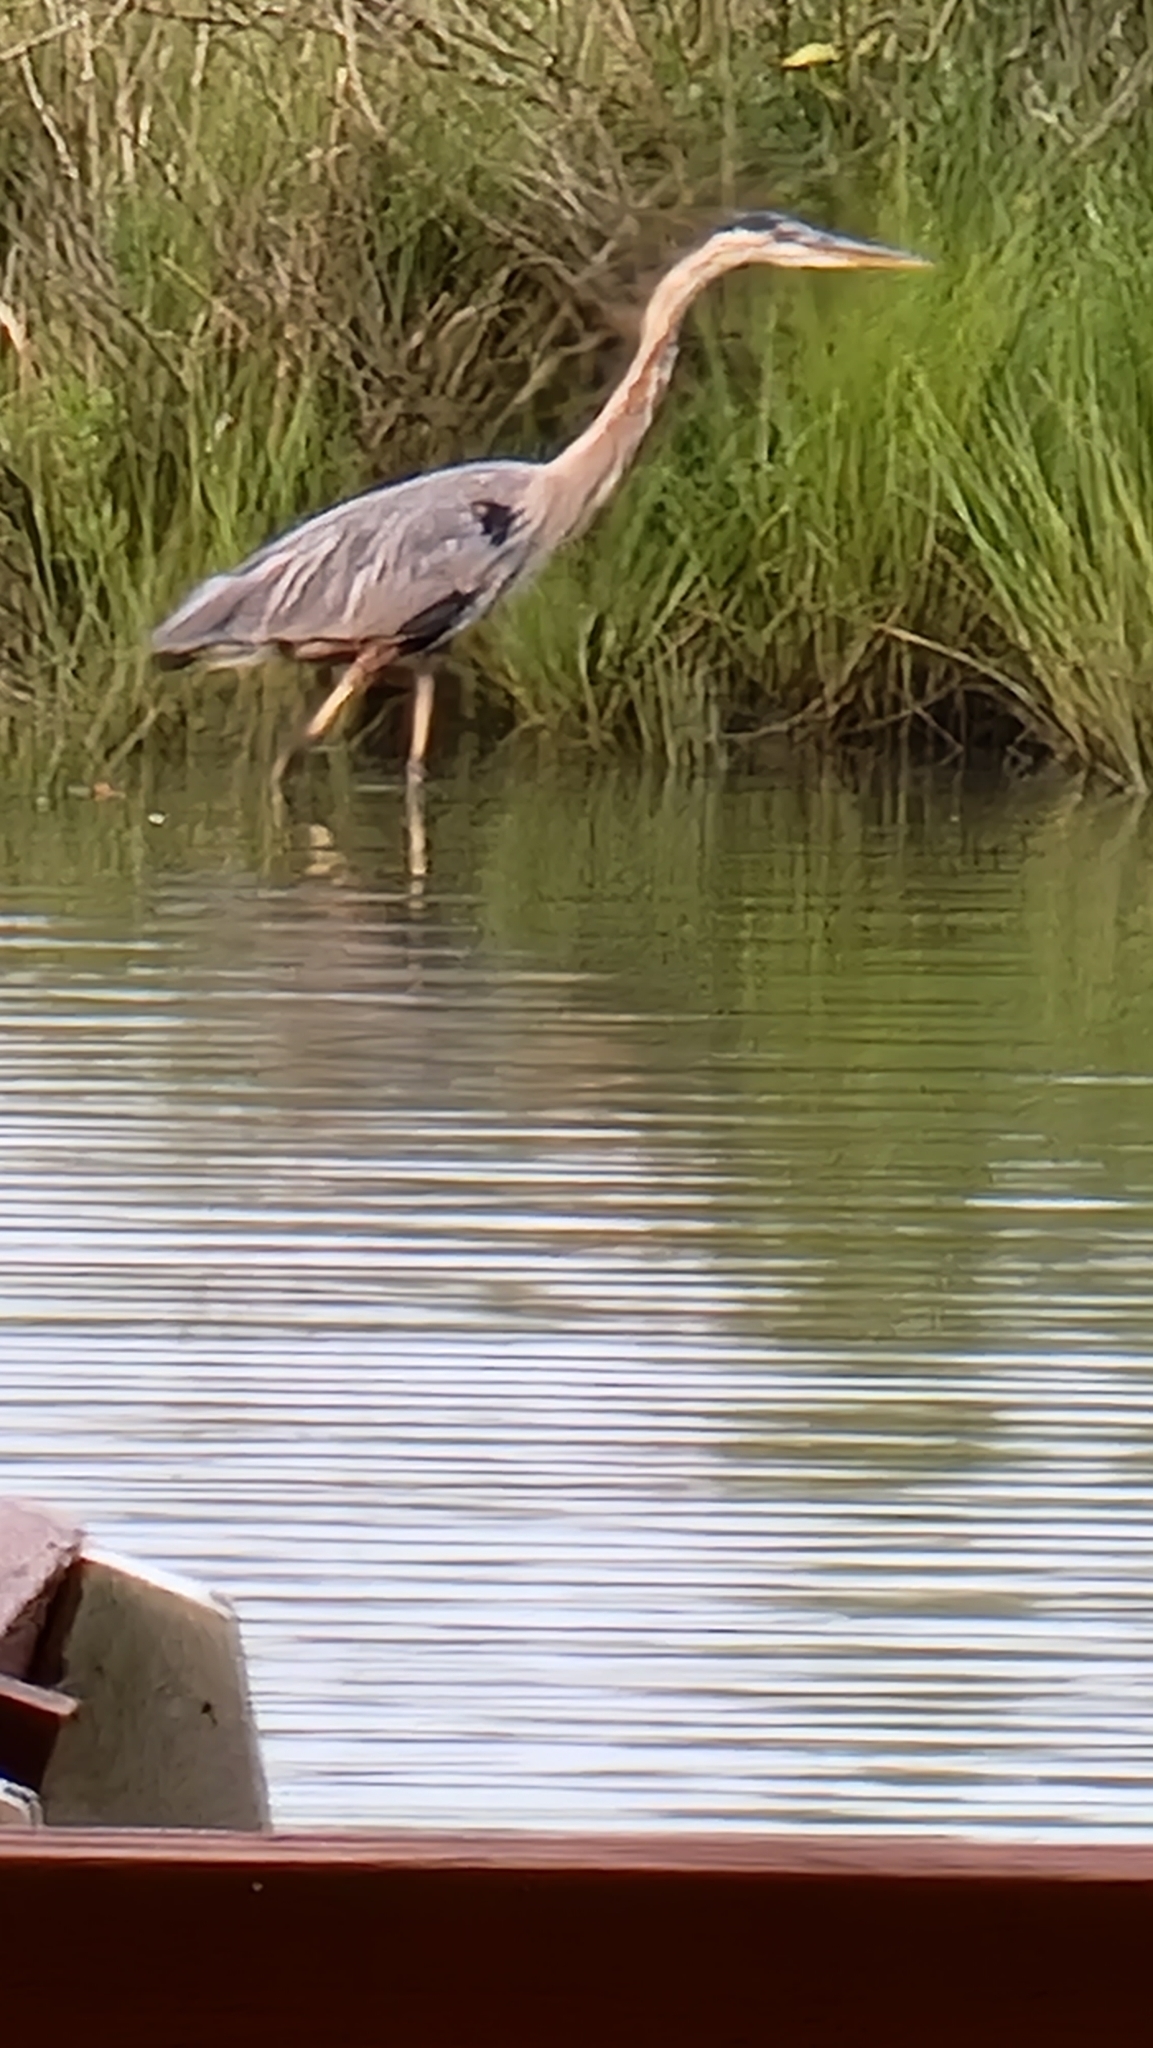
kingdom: Animalia
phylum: Chordata
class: Aves
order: Pelecaniformes
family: Ardeidae
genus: Ardea
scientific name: Ardea herodias
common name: Great blue heron
